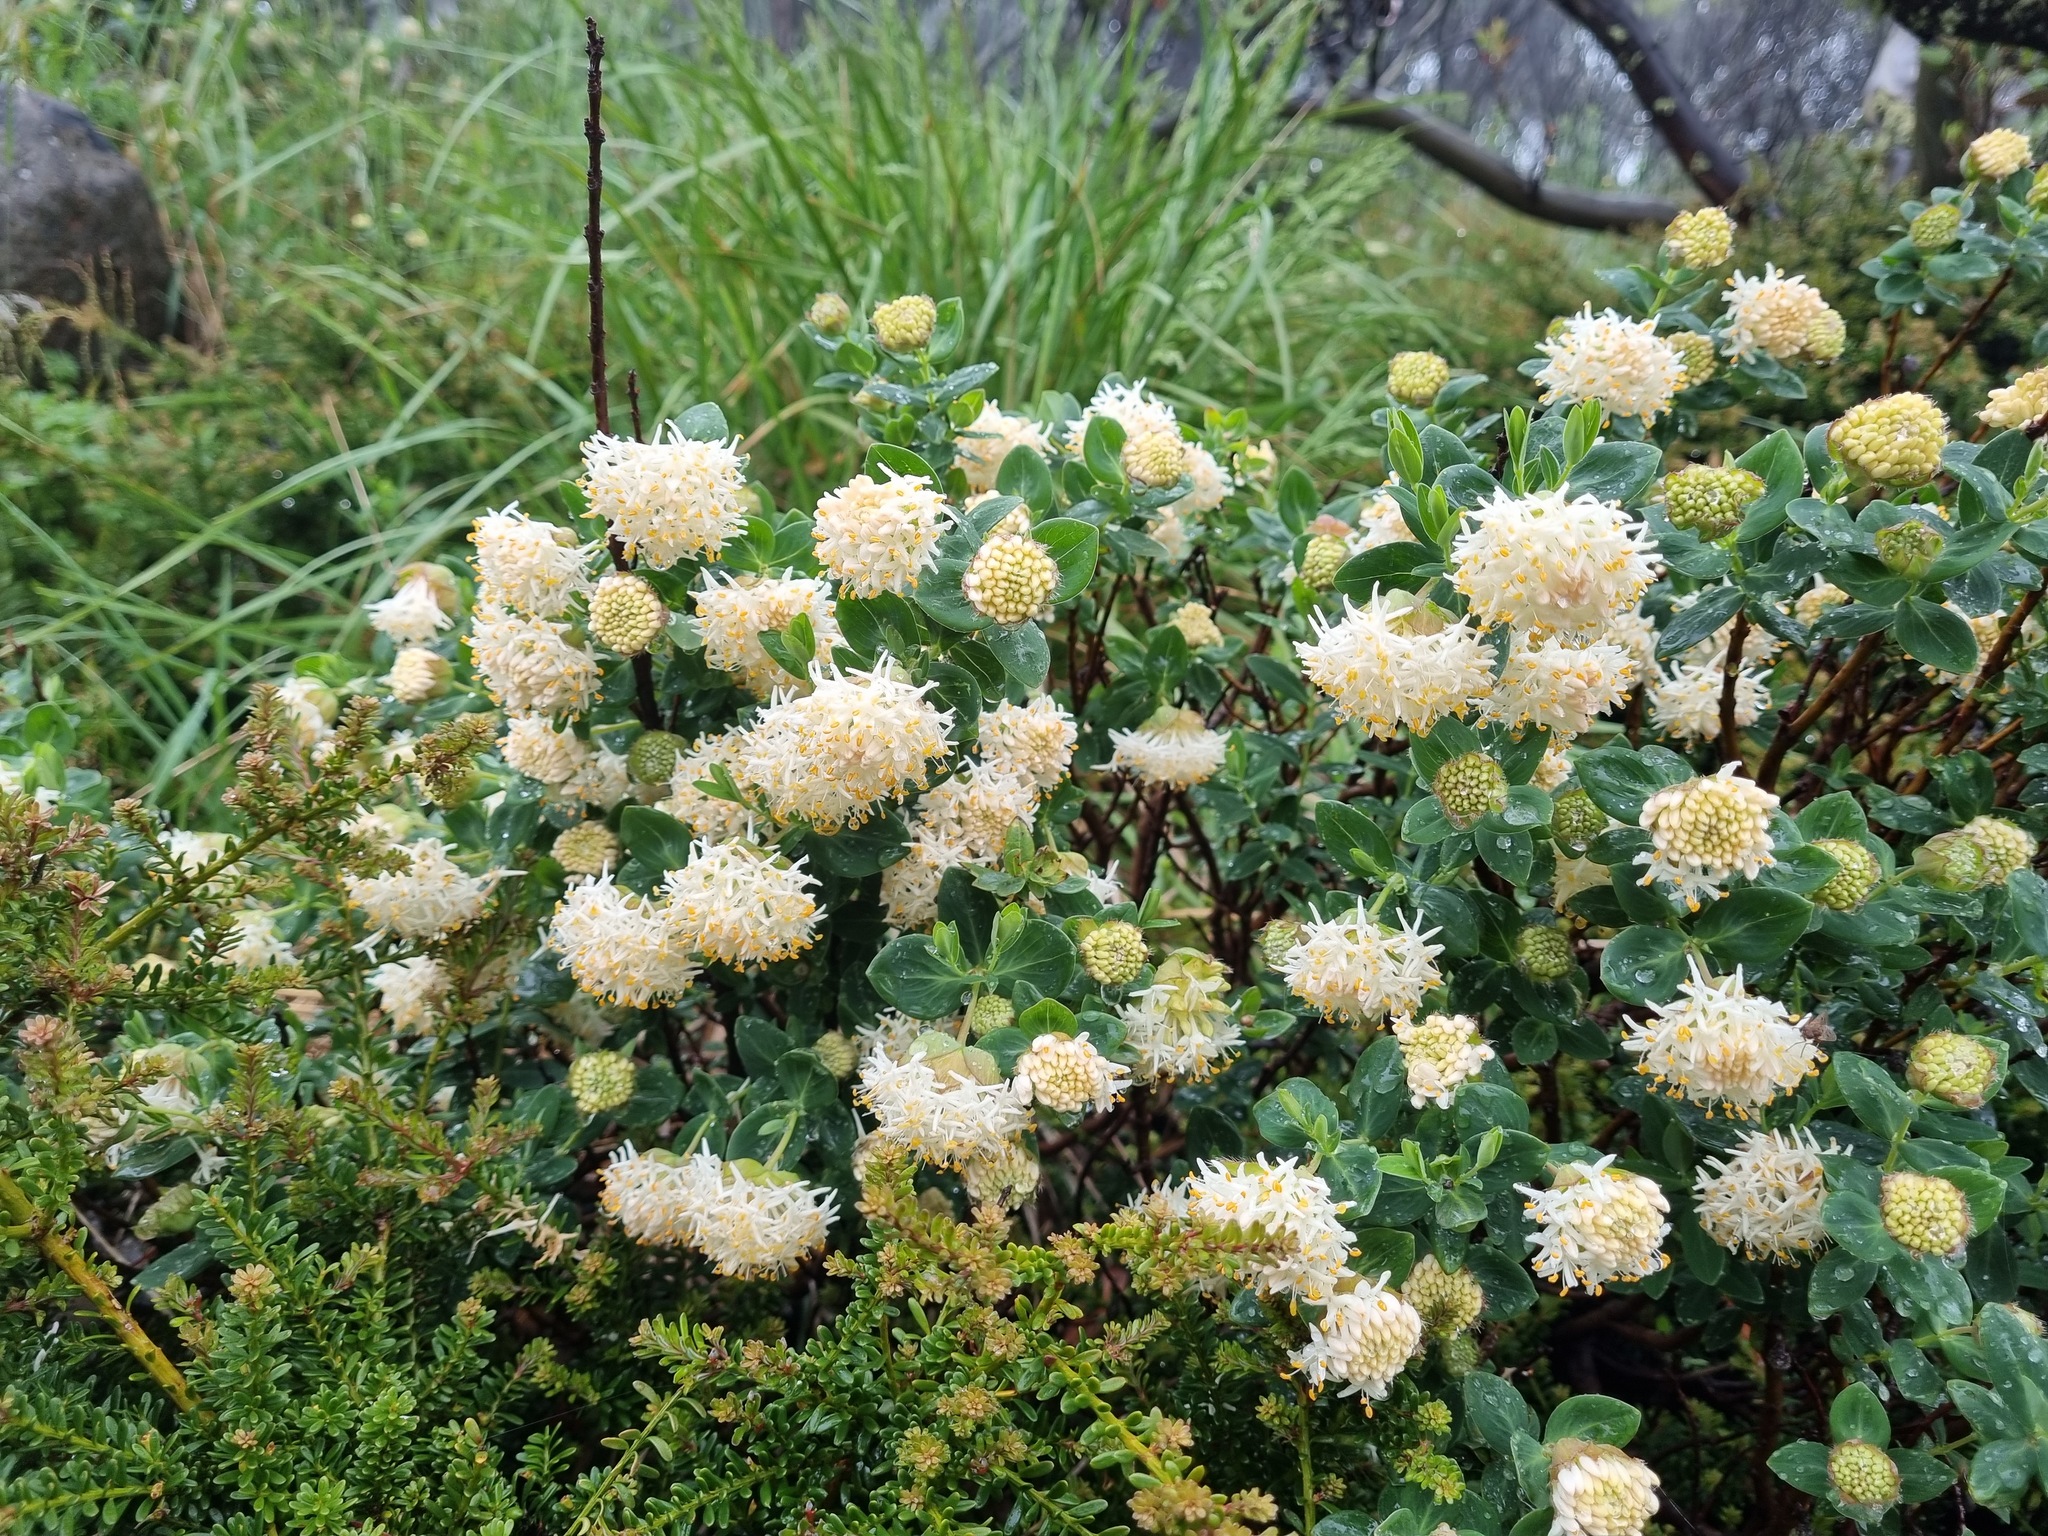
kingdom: Plantae
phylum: Tracheophyta
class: Magnoliopsida
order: Malvales
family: Thymelaeaceae
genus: Pimelea
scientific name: Pimelea ligustrina
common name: Tall riceflower
